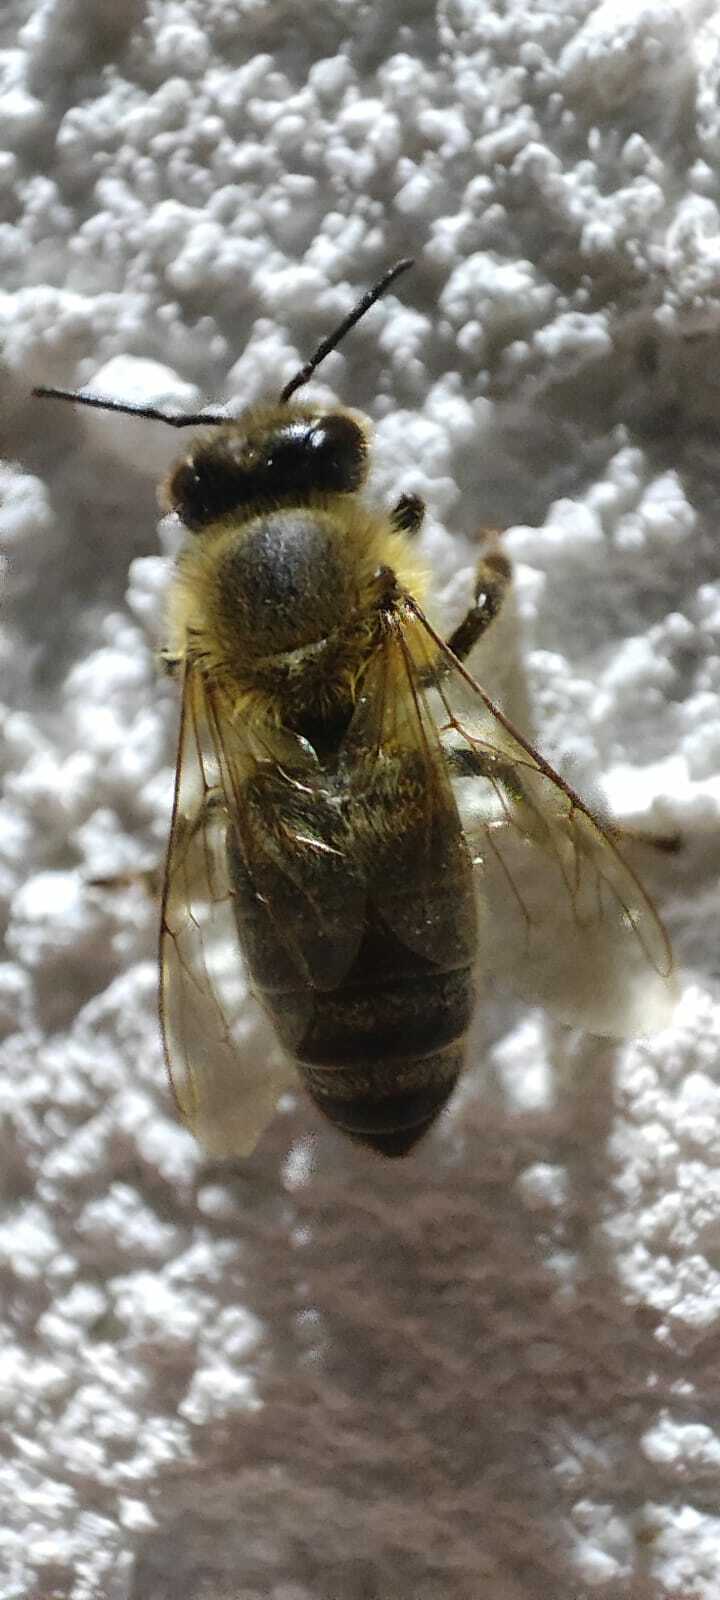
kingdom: Animalia
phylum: Arthropoda
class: Insecta
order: Hymenoptera
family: Apidae
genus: Apis
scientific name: Apis mellifera
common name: Honey bee
